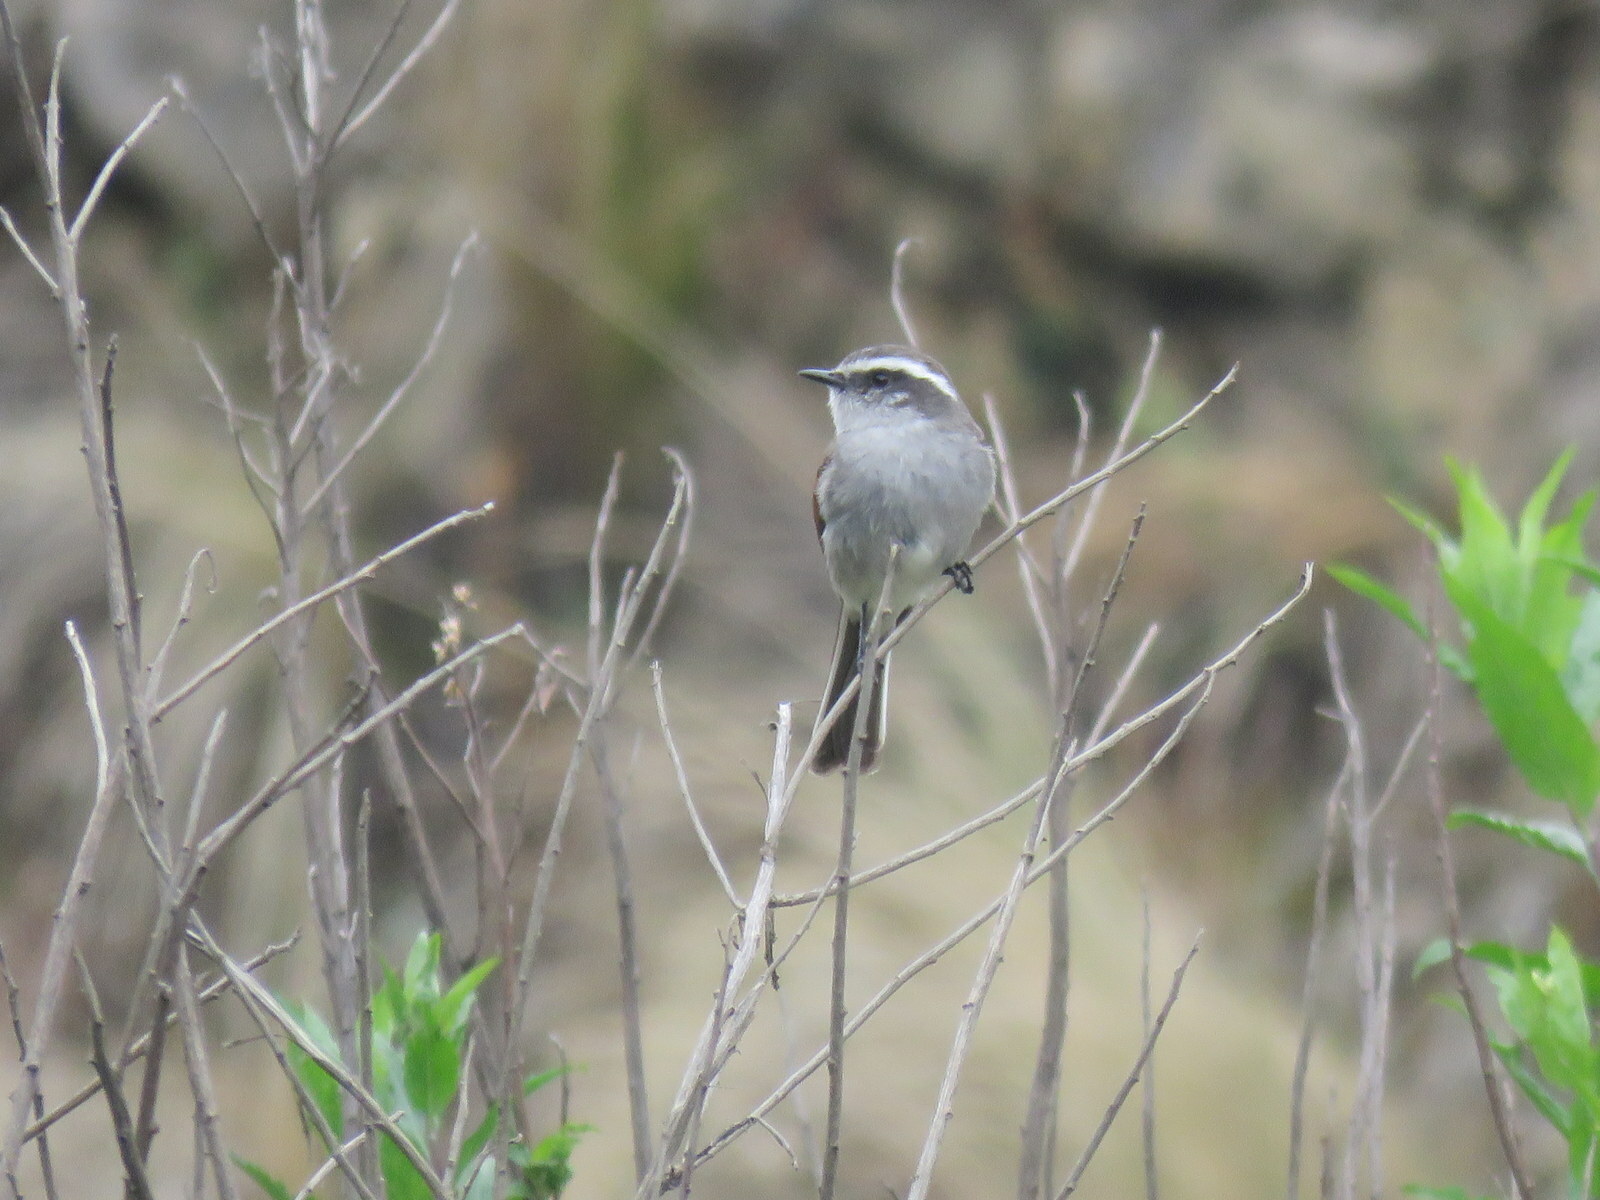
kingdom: Animalia
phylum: Chordata
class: Aves
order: Passeriformes
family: Tyrannidae
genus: Ochthoeca
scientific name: Ochthoeca leucophrys
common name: White-browed chat-tyrant
